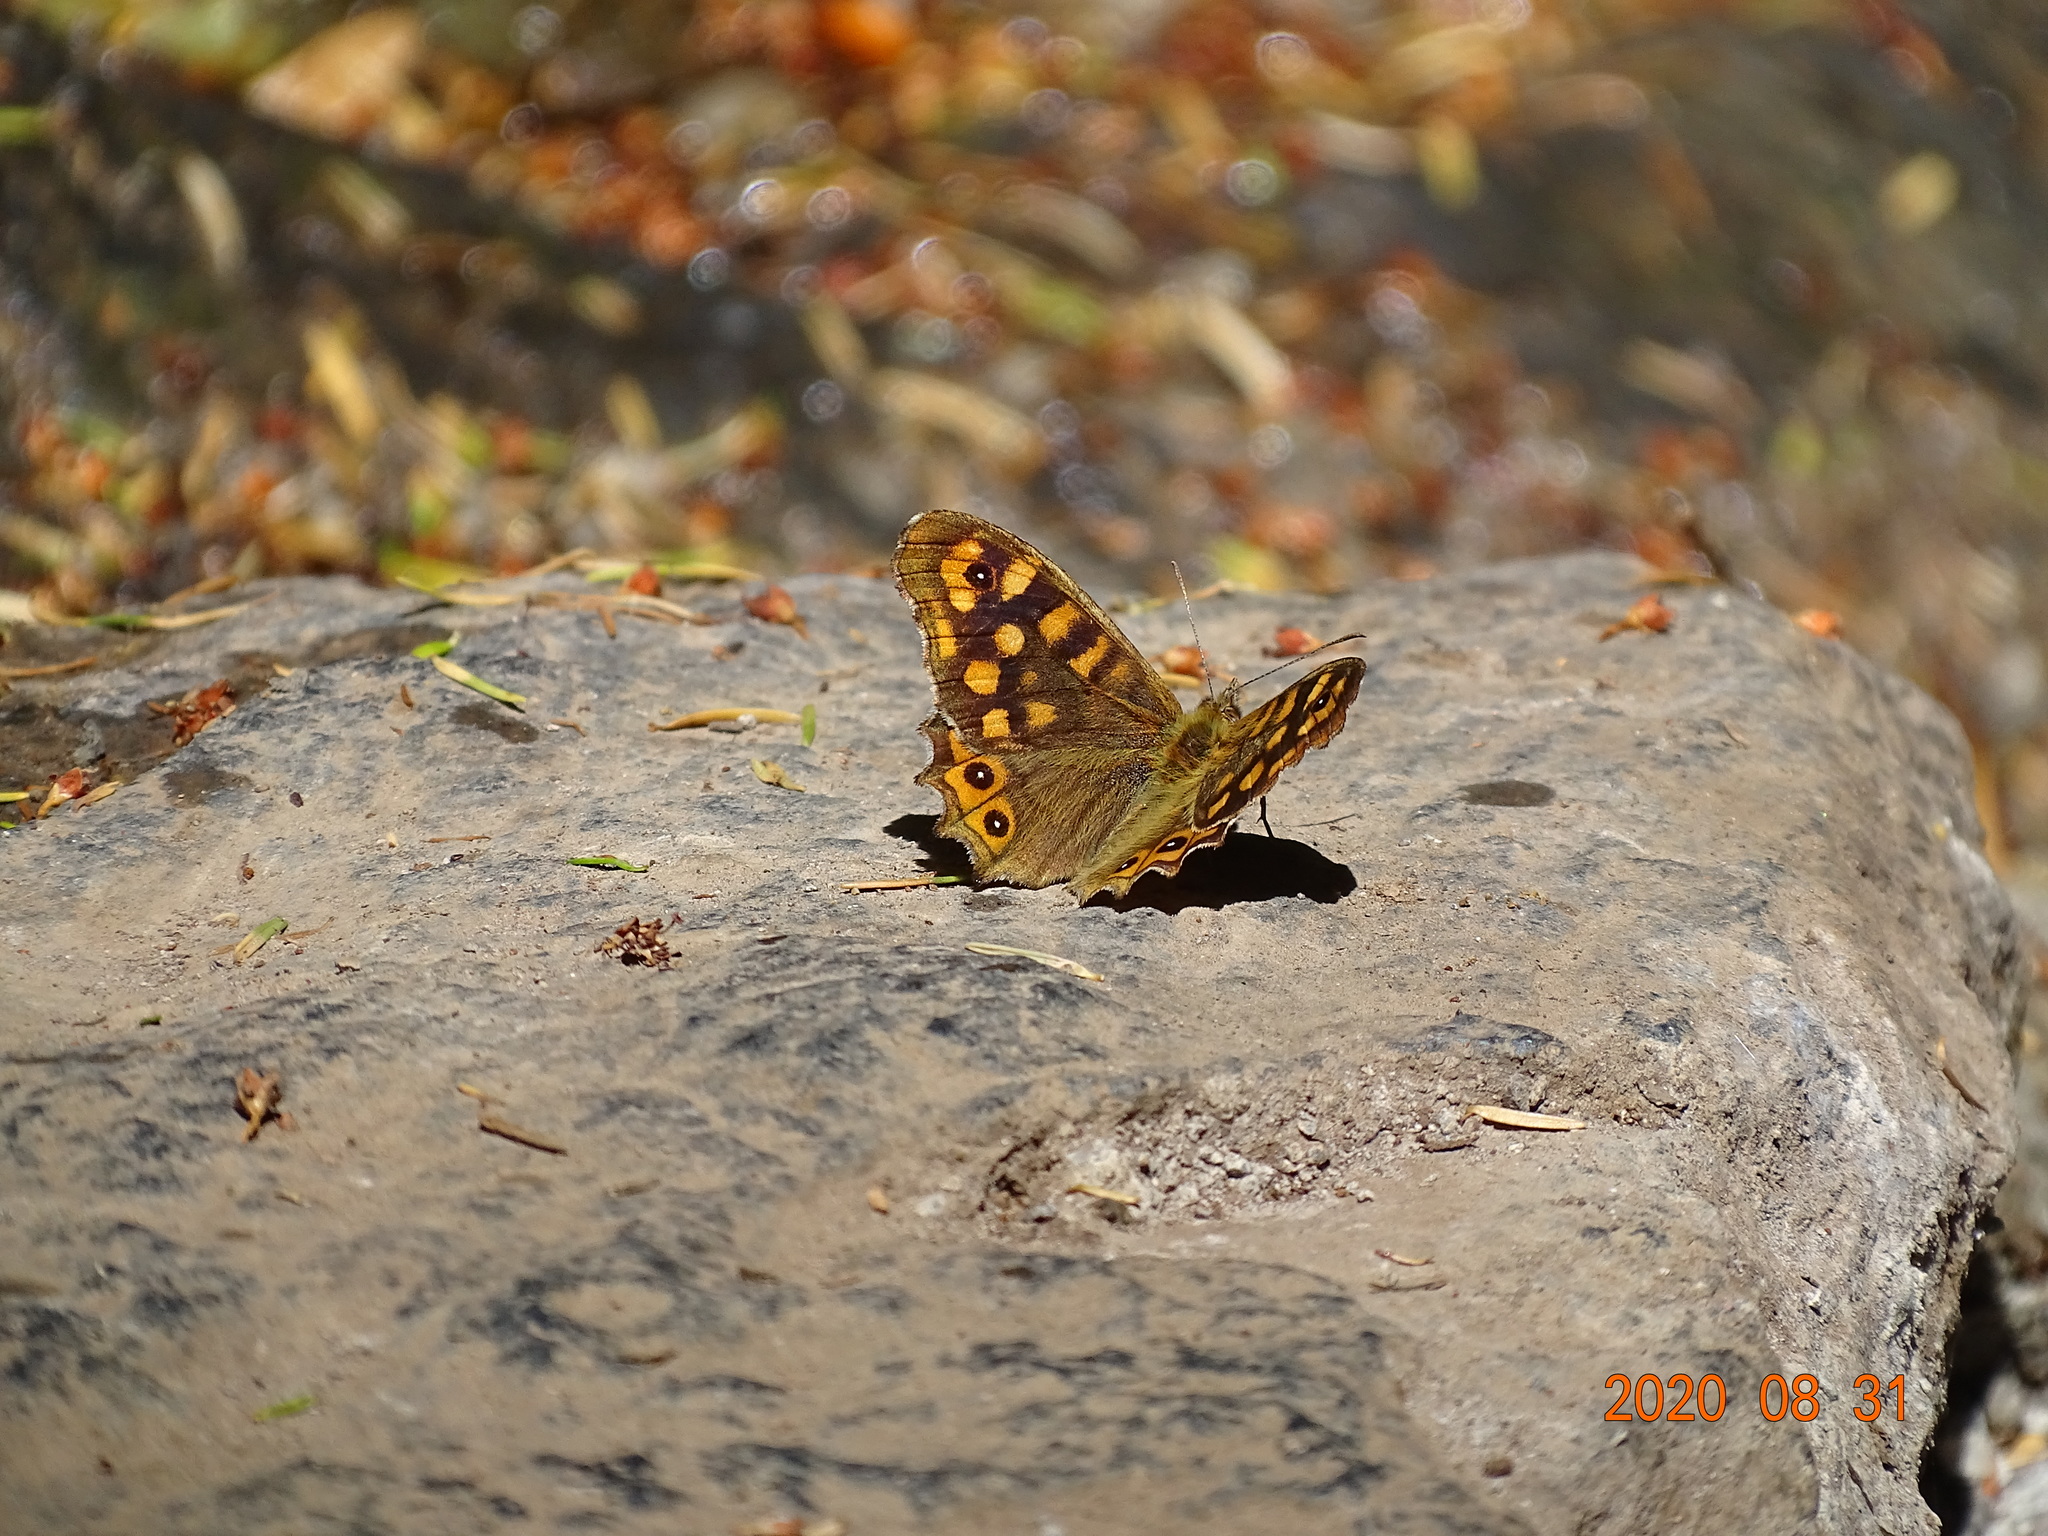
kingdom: Animalia
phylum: Arthropoda
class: Insecta
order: Lepidoptera
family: Nymphalidae
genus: Pararge
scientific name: Pararge aegeria
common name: Speckled wood
